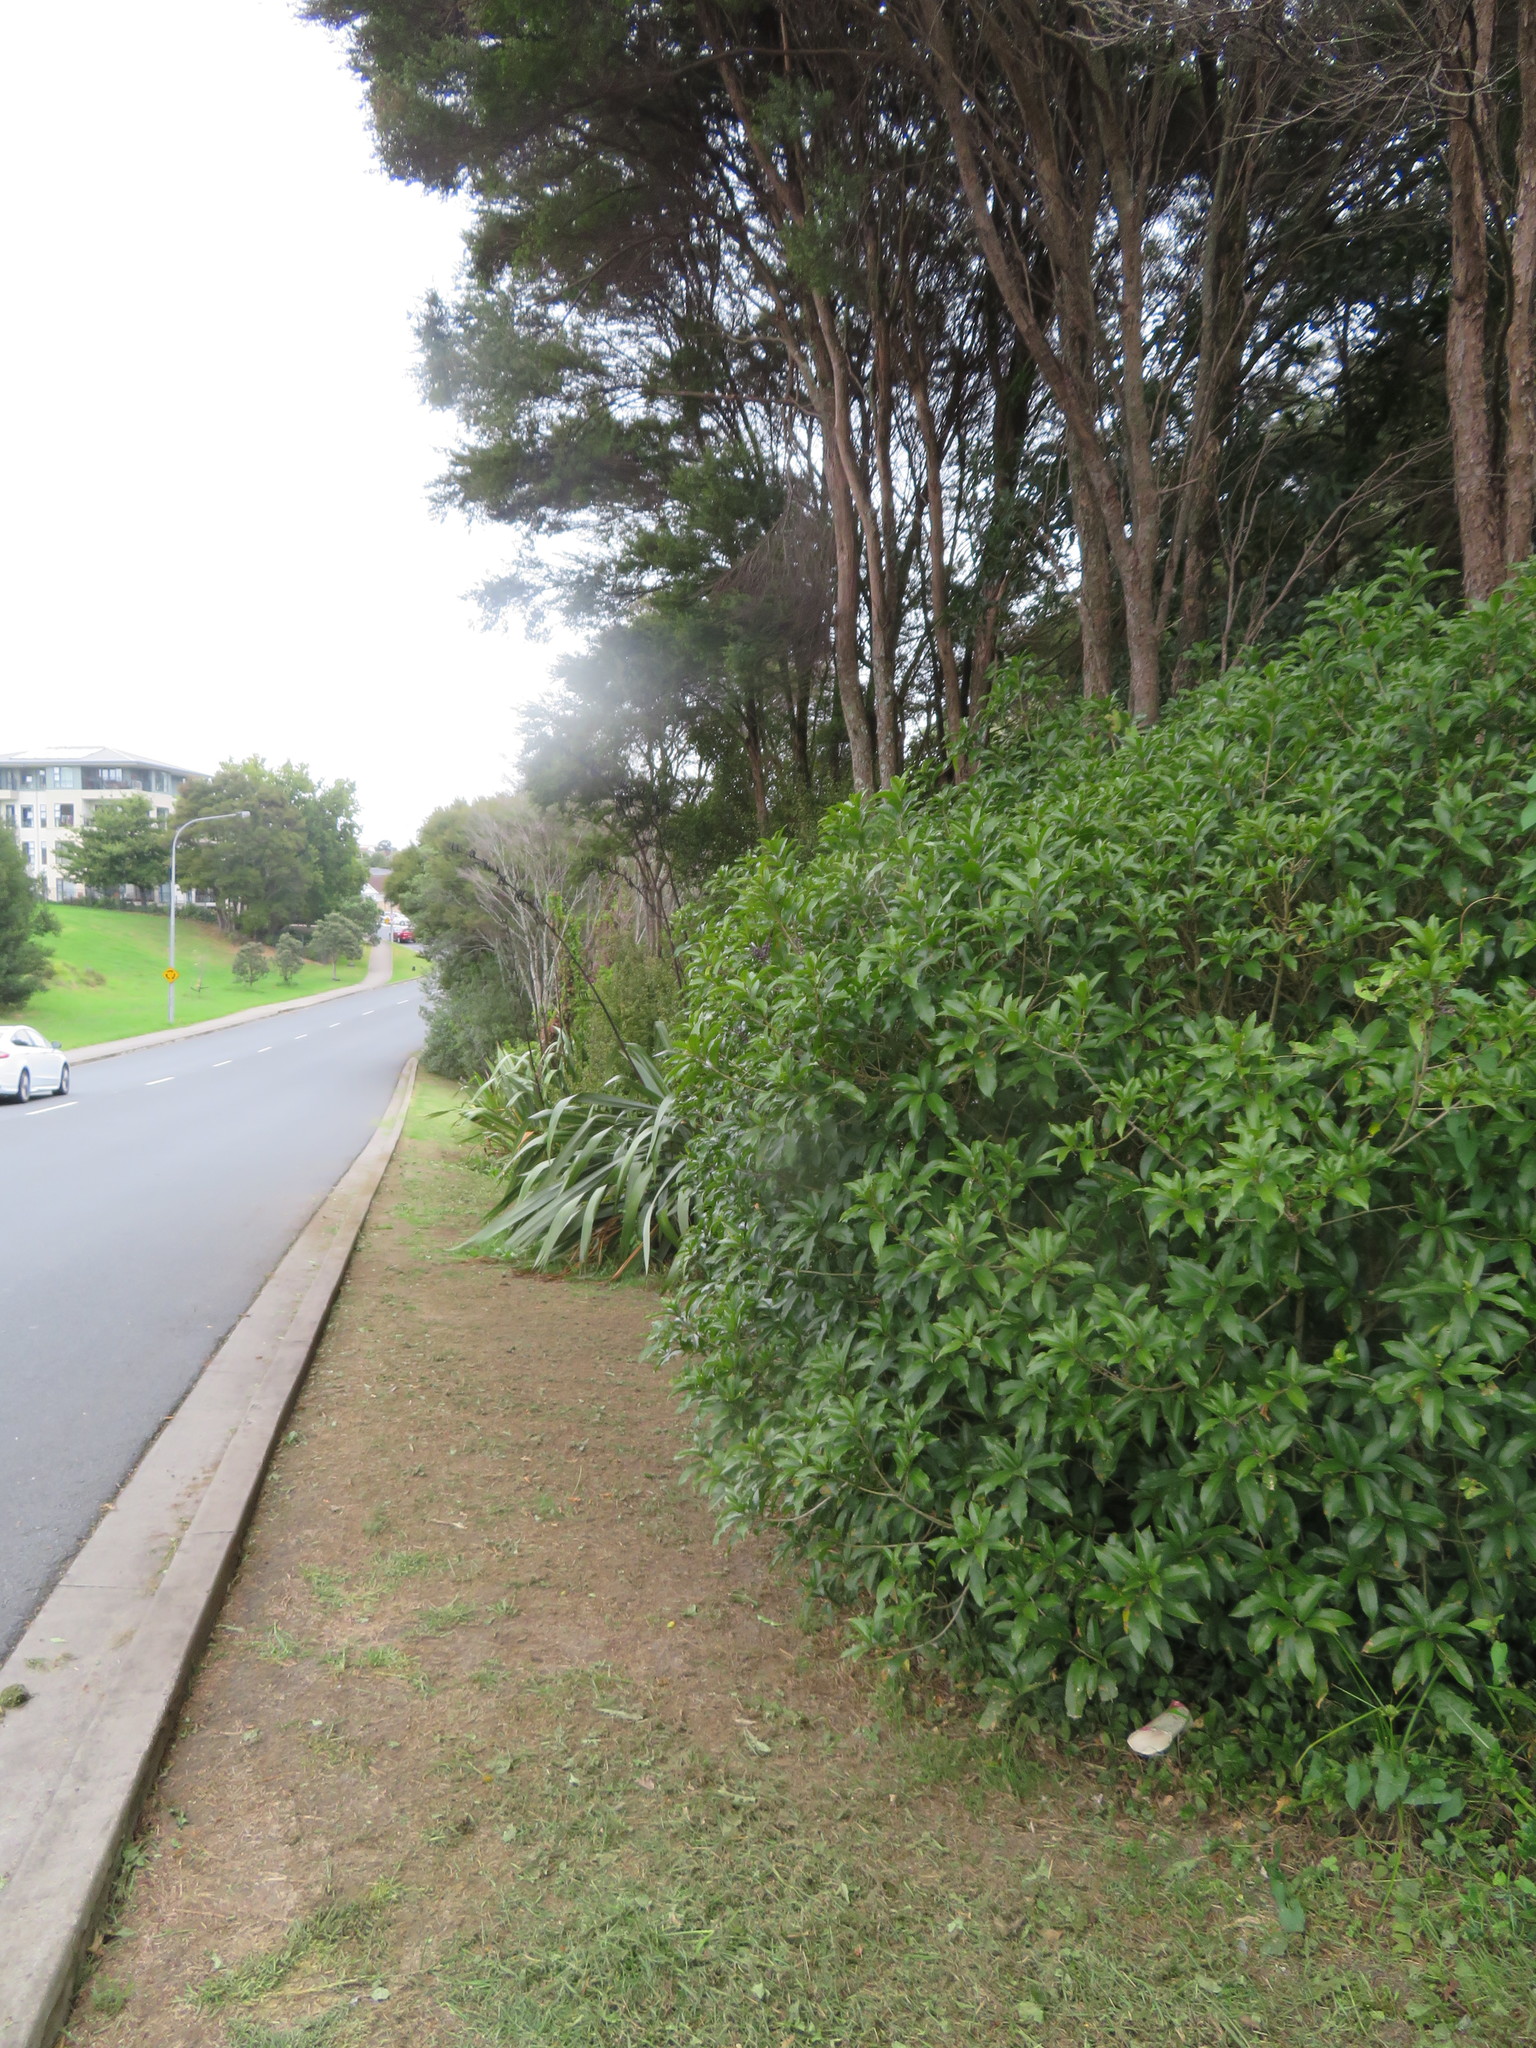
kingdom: Plantae
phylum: Tracheophyta
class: Magnoliopsida
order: Malpighiales
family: Violaceae
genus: Melicytus
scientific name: Melicytus ramiflorus
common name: Mahoe
